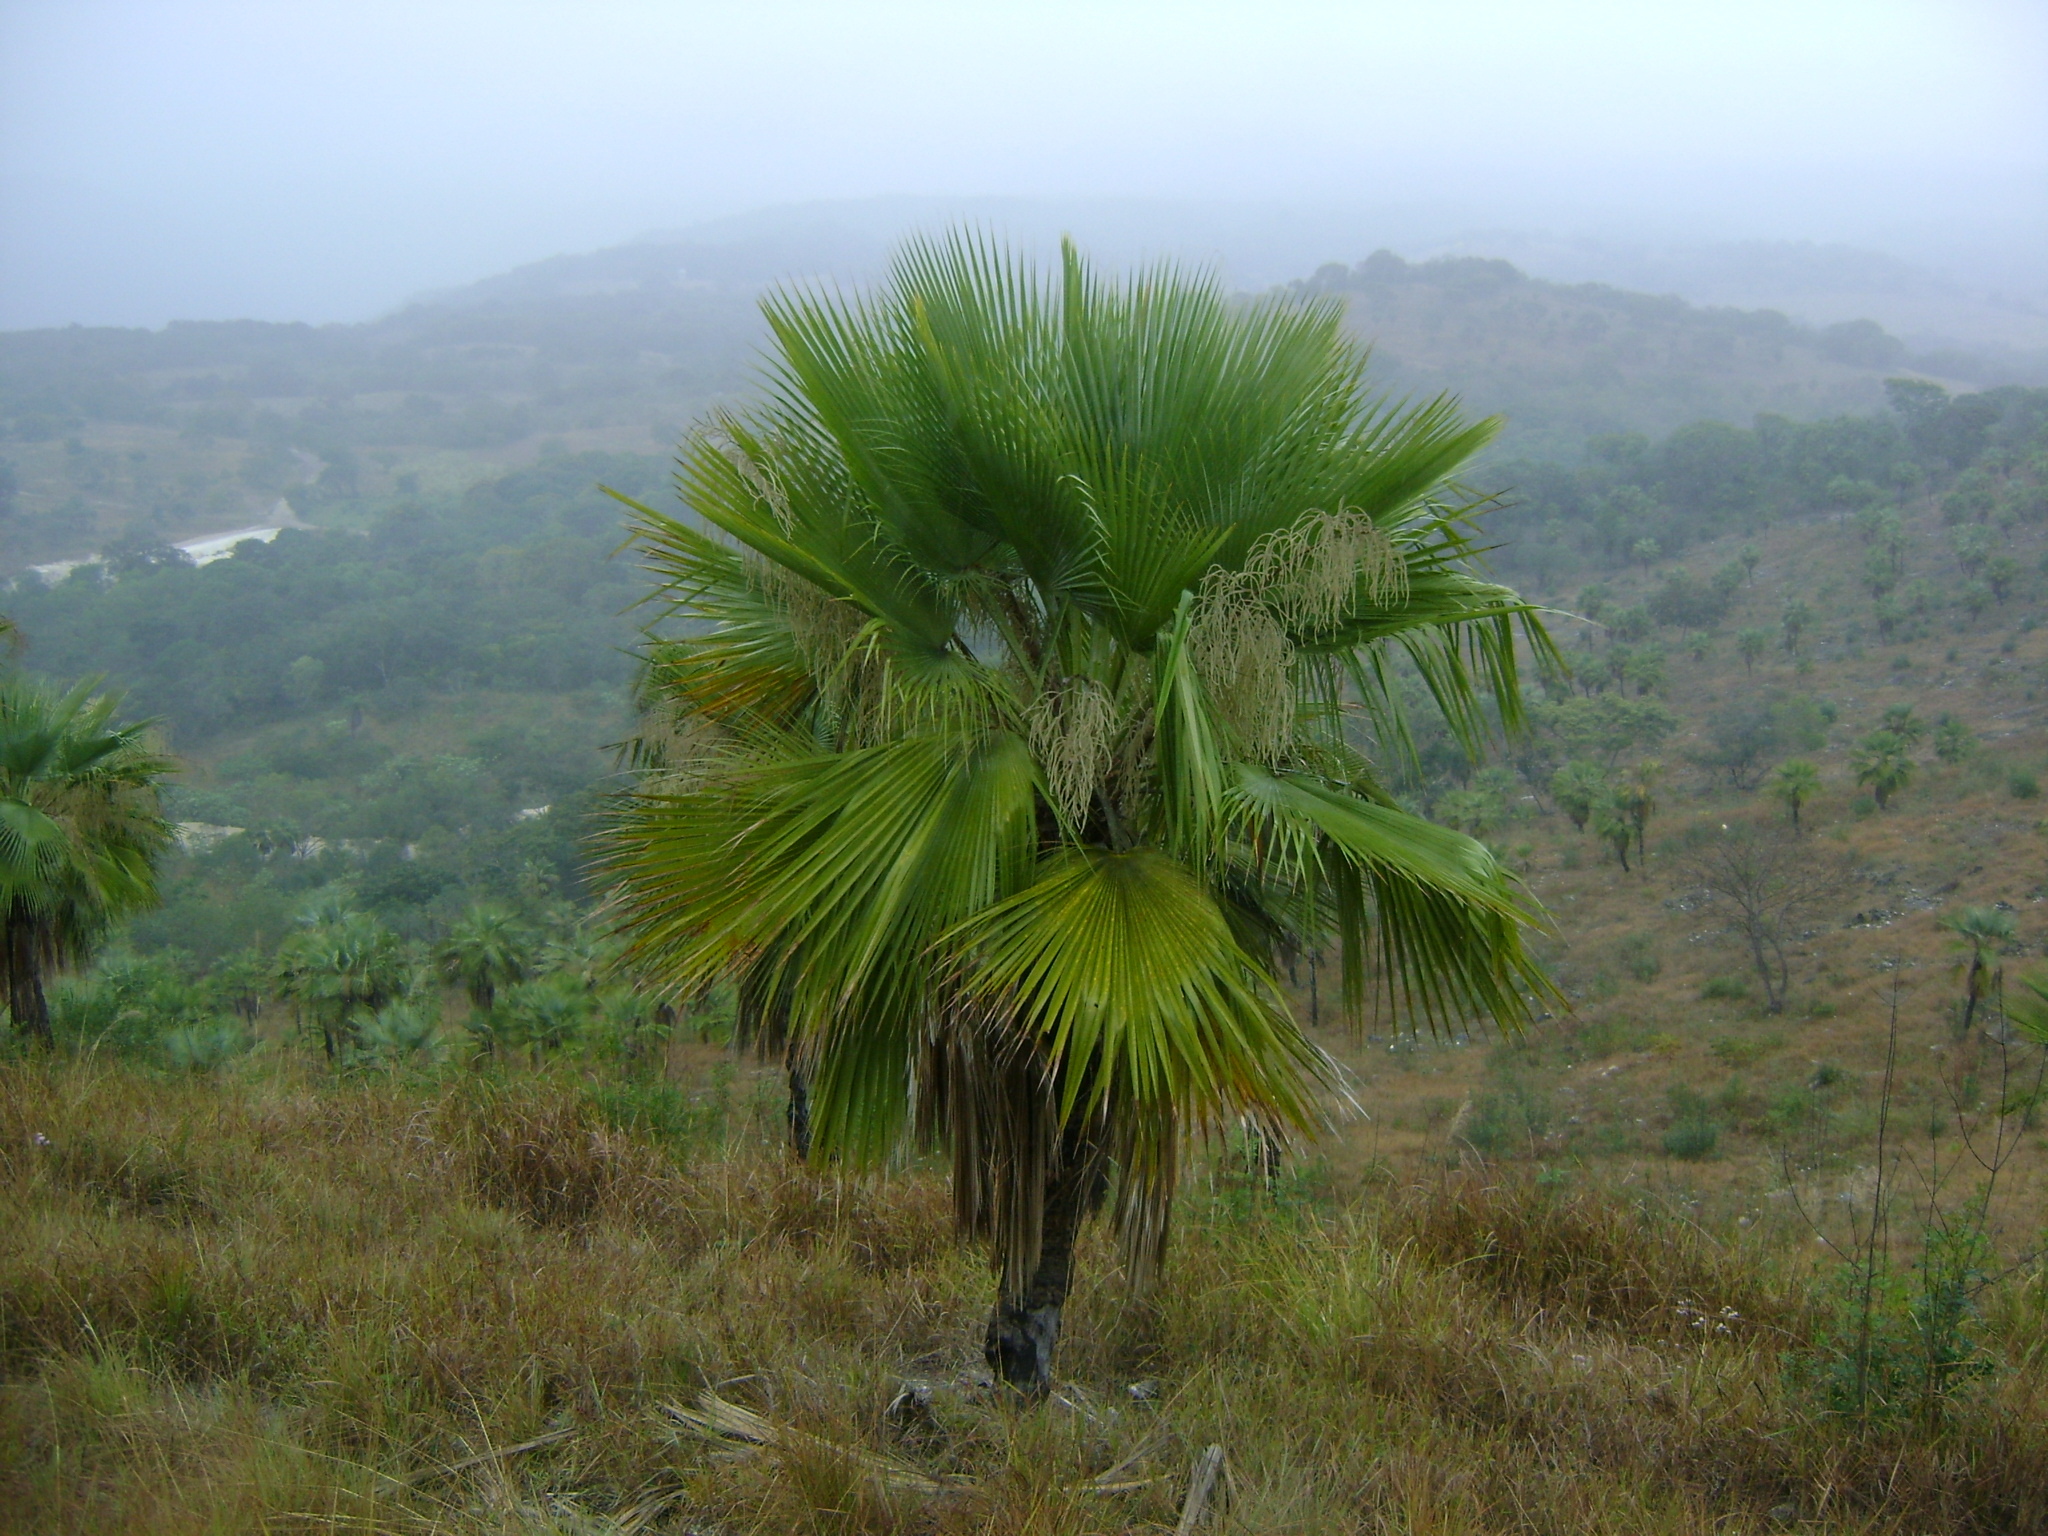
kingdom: Plantae
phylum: Tracheophyta
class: Liliopsida
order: Arecales
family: Arecaceae
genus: Brahea
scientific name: Brahea dulcis
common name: Apak palm
